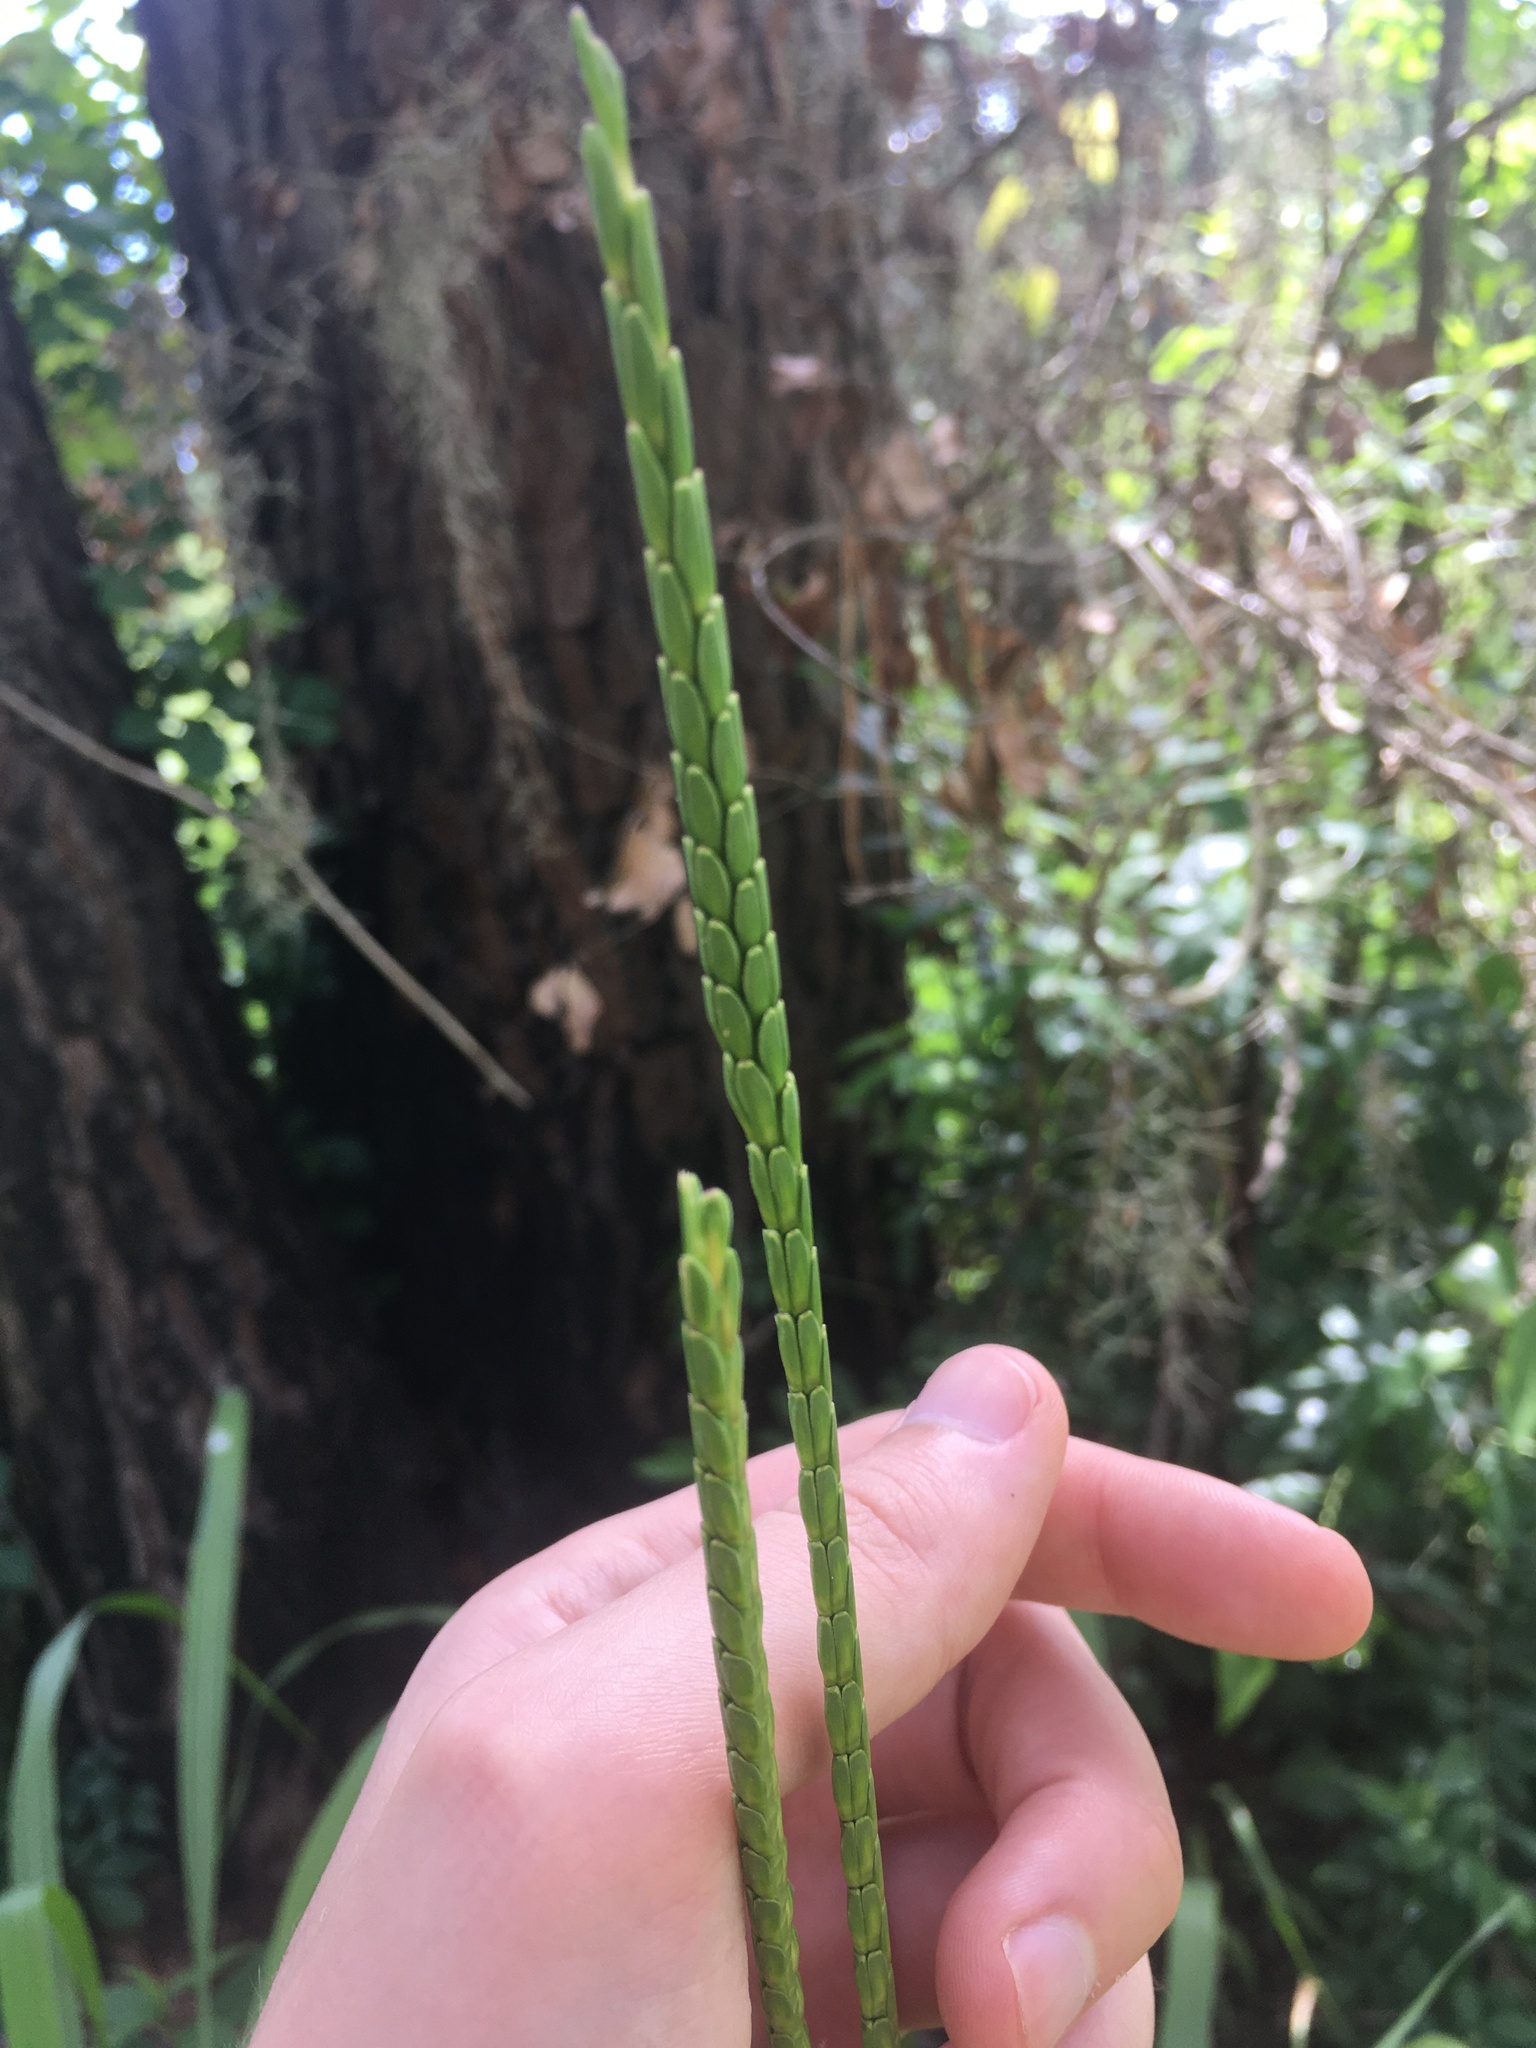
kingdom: Plantae
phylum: Tracheophyta
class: Liliopsida
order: Poales
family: Poaceae
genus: Tripsacum
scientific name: Tripsacum dactyloides
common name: Buffalo-grass
